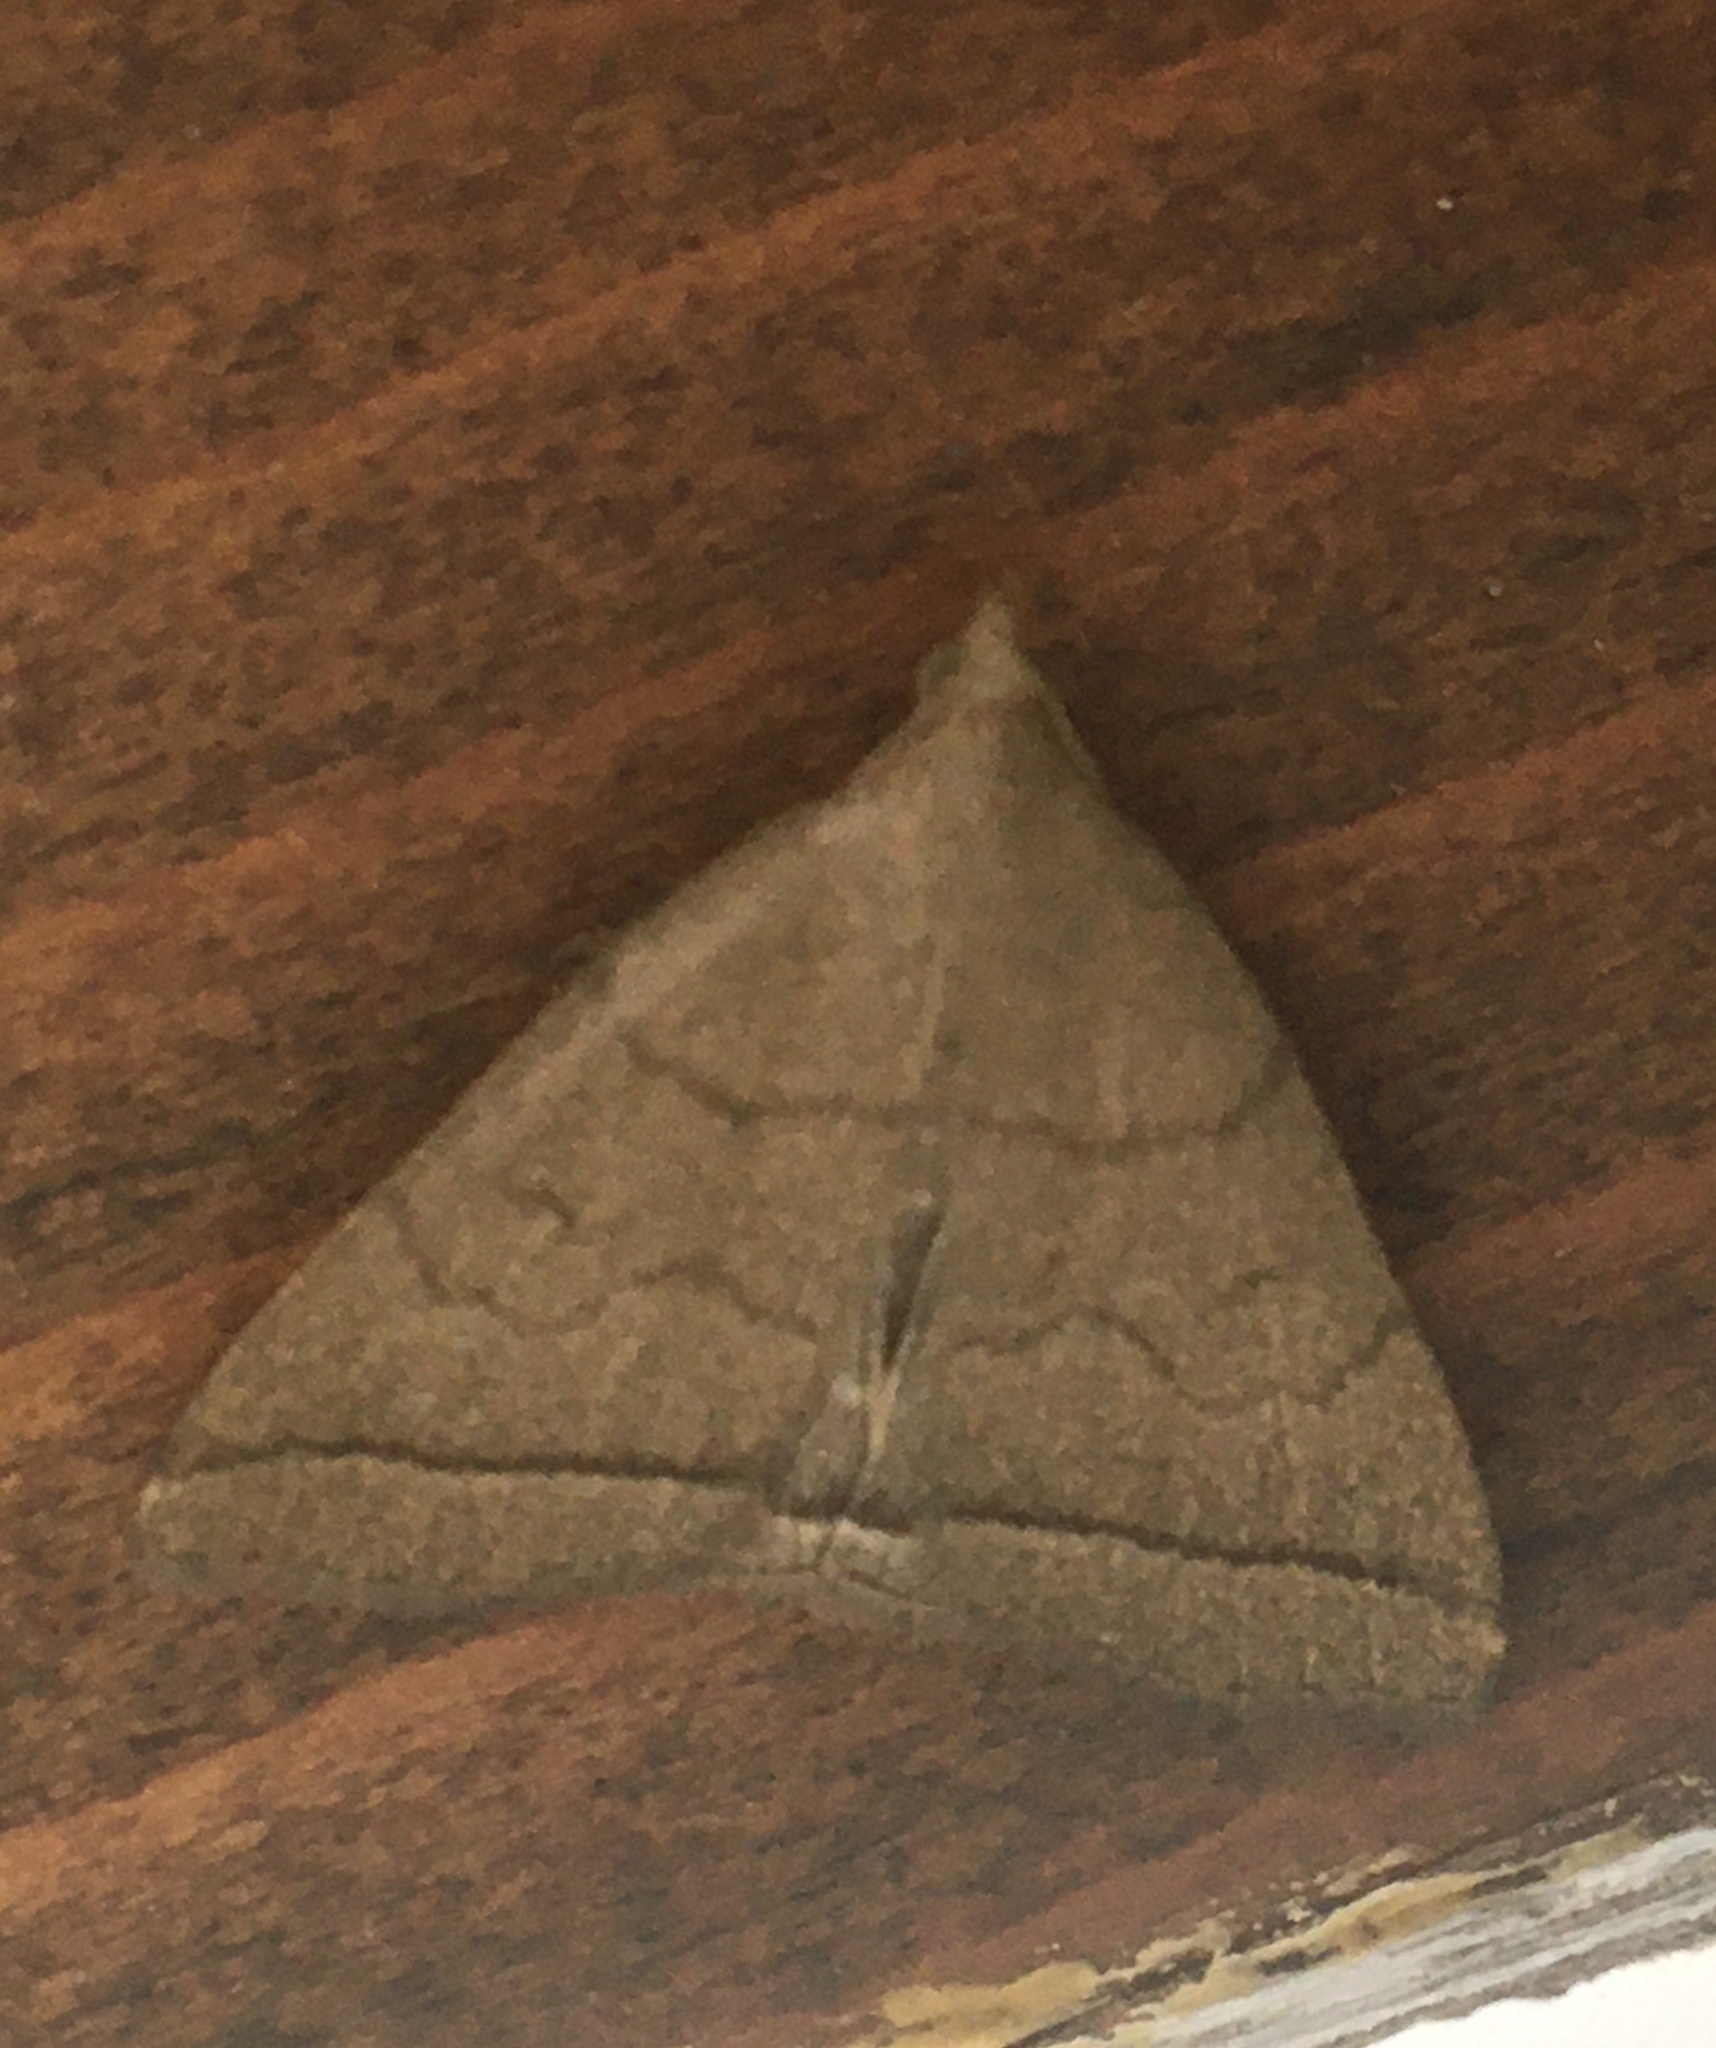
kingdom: Animalia
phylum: Arthropoda
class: Insecta
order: Lepidoptera
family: Erebidae
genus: Herminia
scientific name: Herminia tarsipennalis
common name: Fan-foot
